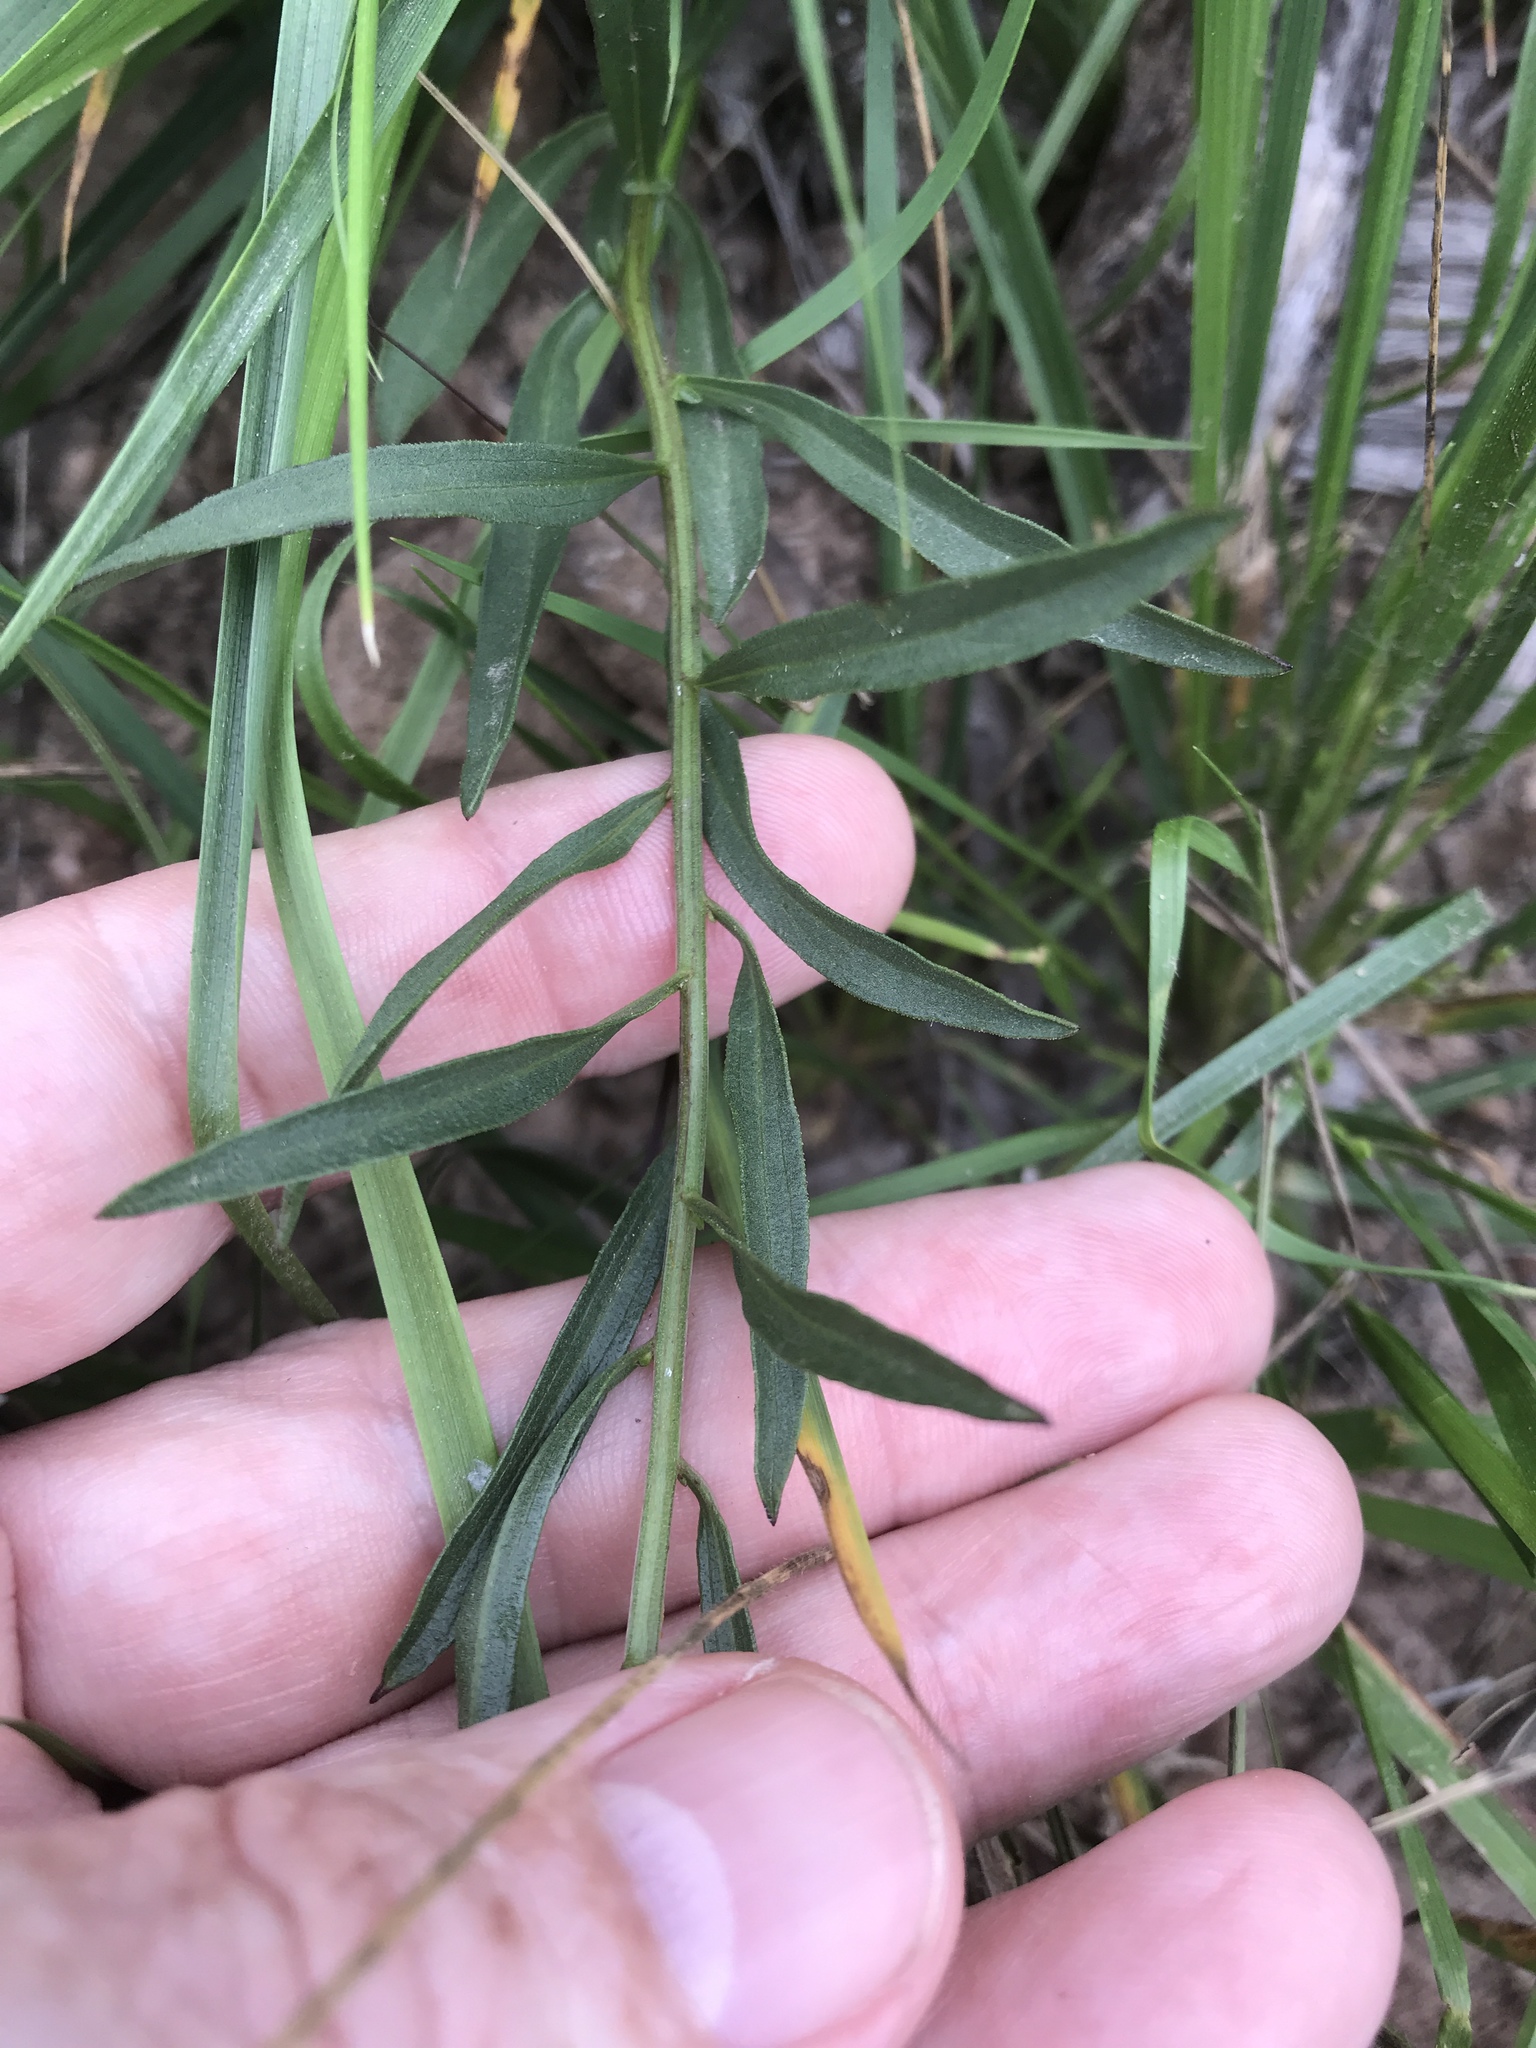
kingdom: Plantae
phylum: Tracheophyta
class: Magnoliopsida
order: Asterales
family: Asteraceae
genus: Sericocarpus
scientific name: Sericocarpus linifolius
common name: Narrow-leaf aster
